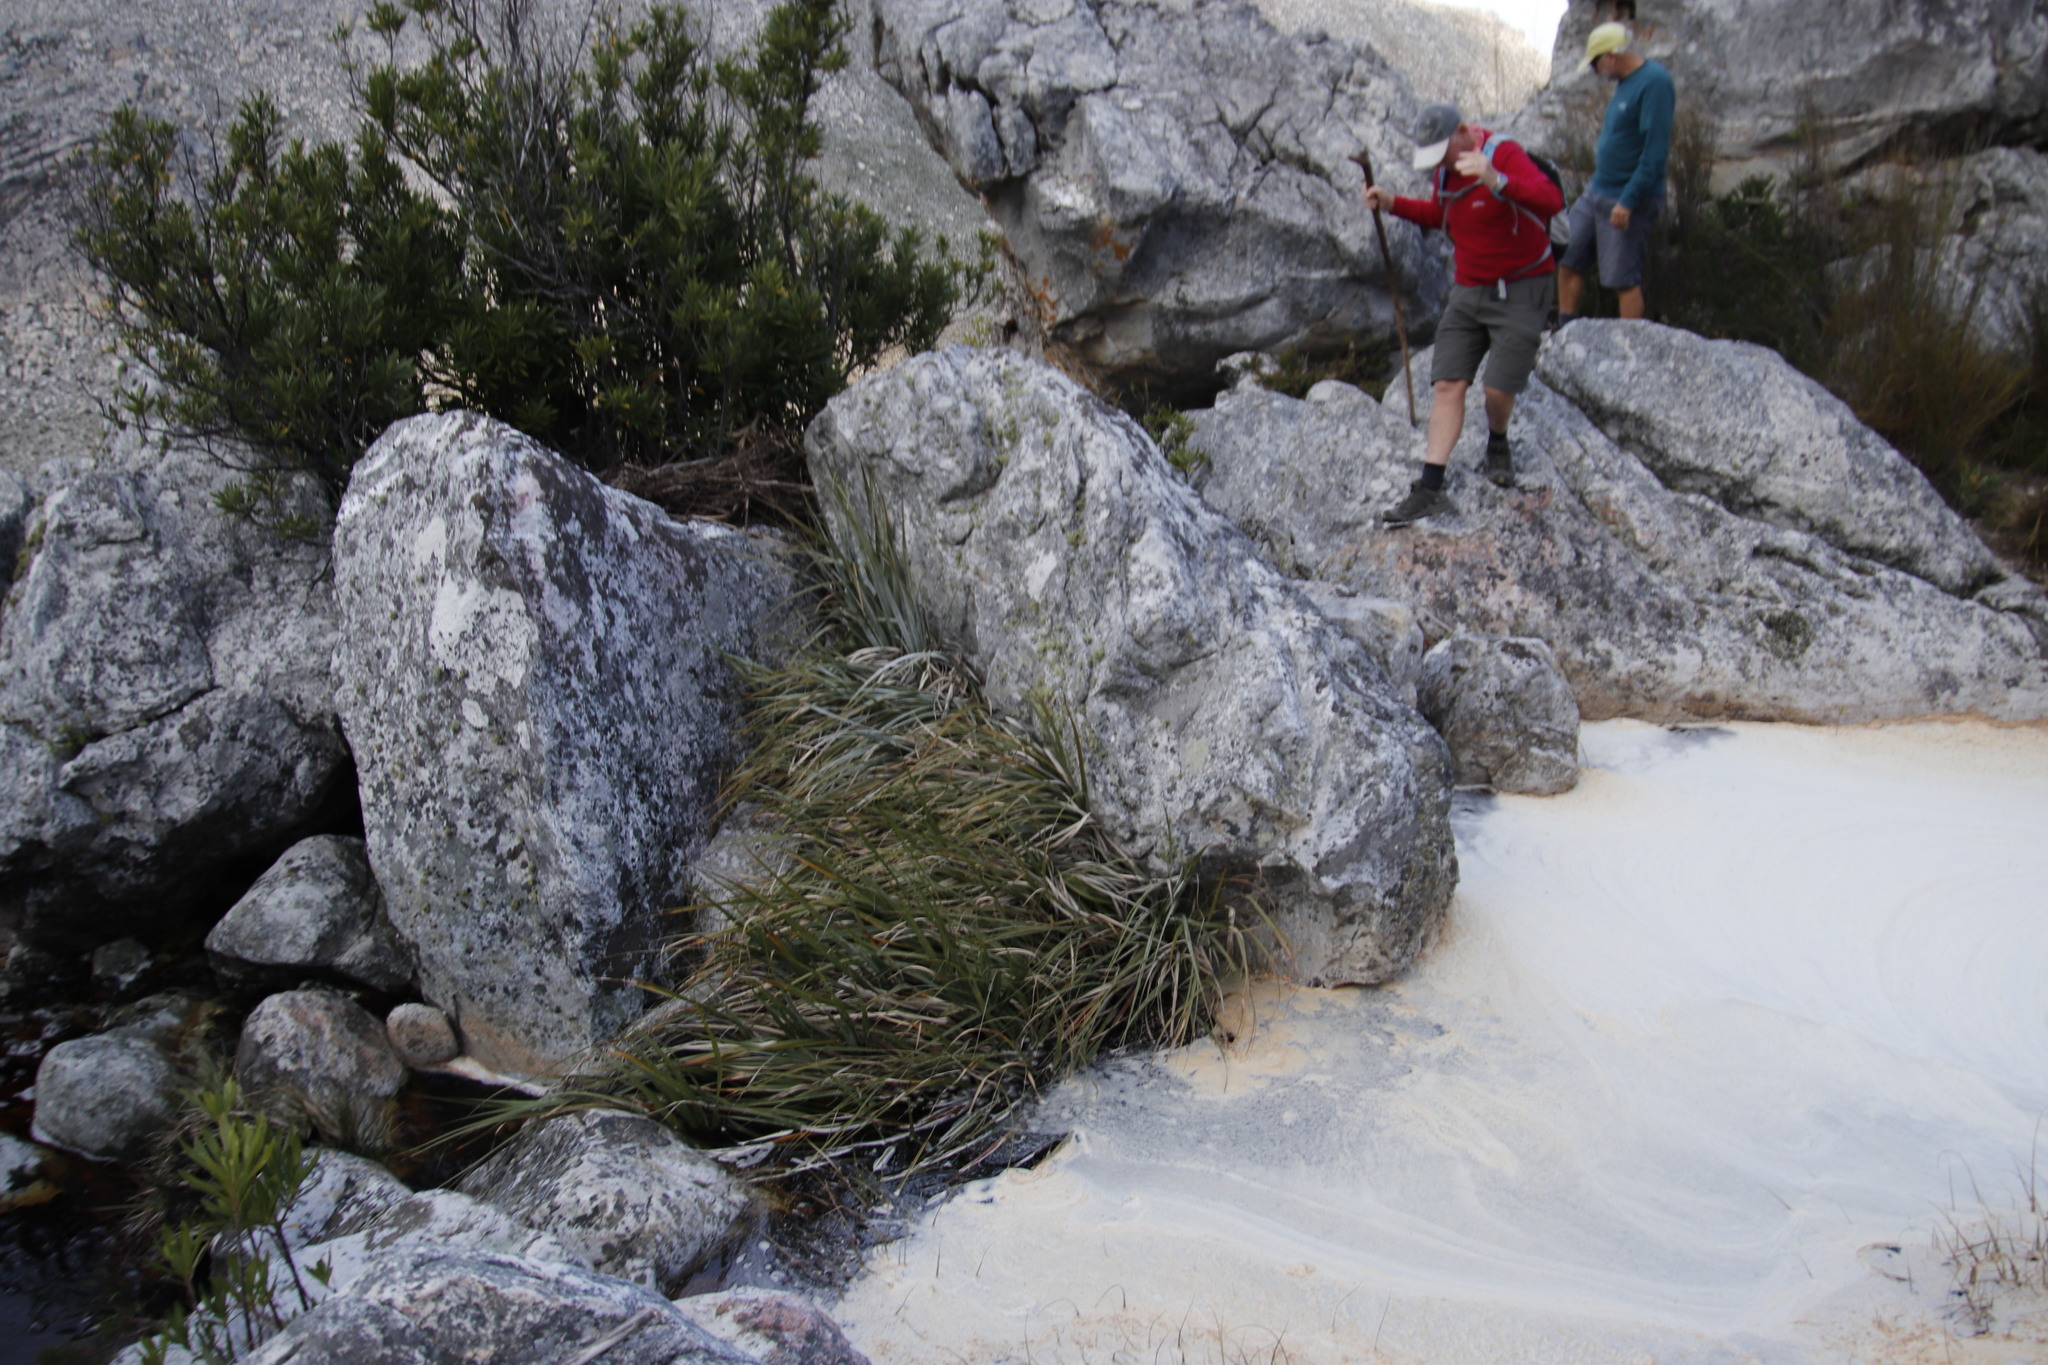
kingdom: Plantae
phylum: Tracheophyta
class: Liliopsida
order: Poales
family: Thurniaceae
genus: Prionium
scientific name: Prionium serratum
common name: Palmiet
